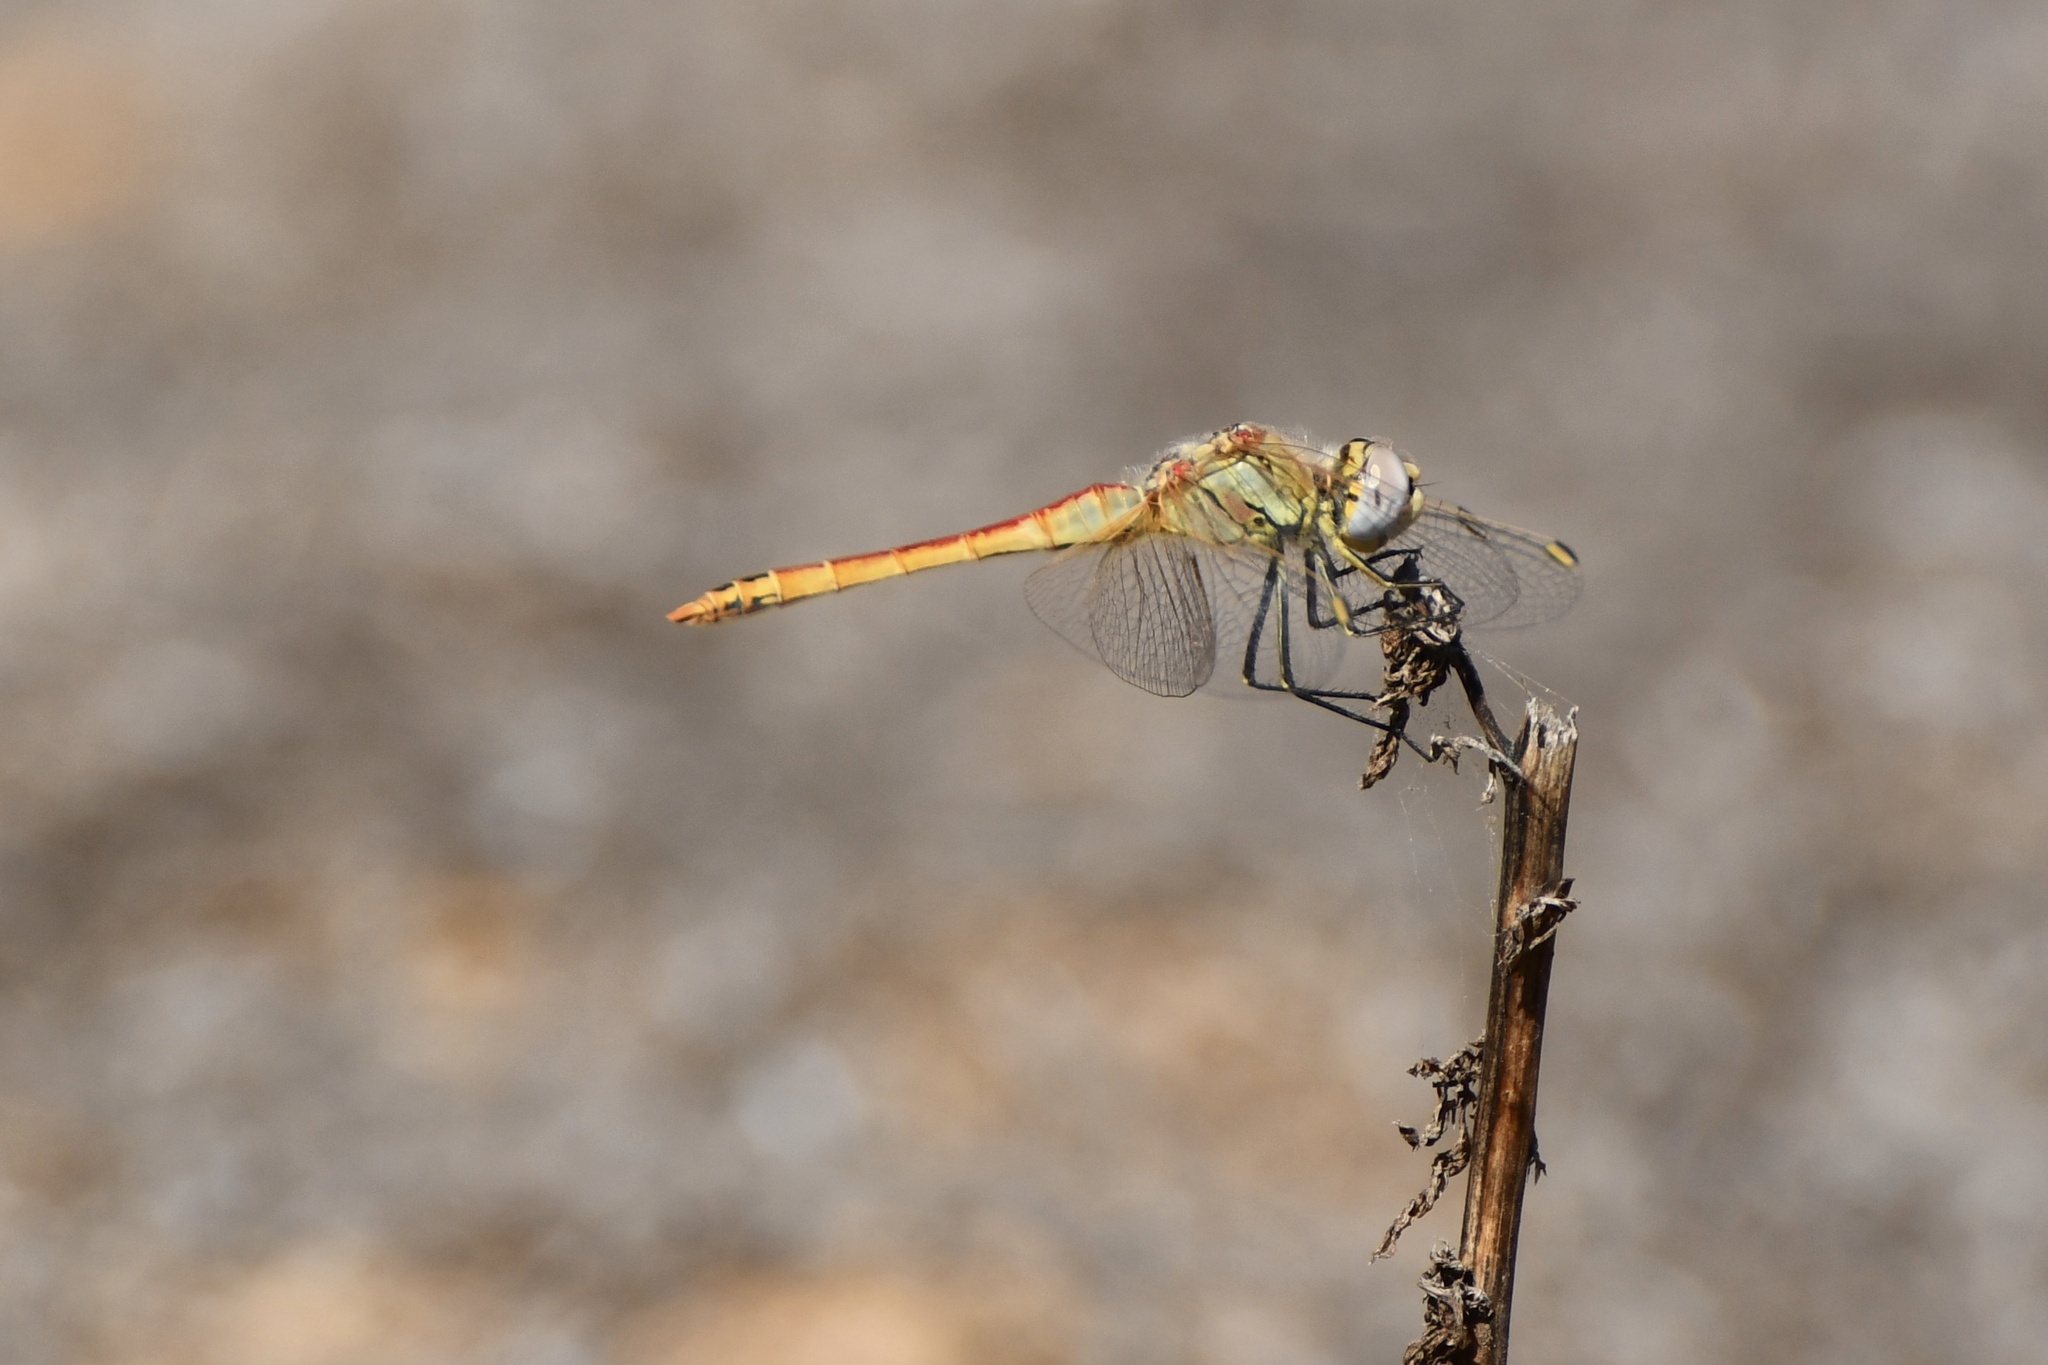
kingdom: Animalia
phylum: Arthropoda
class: Insecta
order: Odonata
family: Libellulidae
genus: Sympetrum
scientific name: Sympetrum fonscolombii
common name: Red-veined darter
